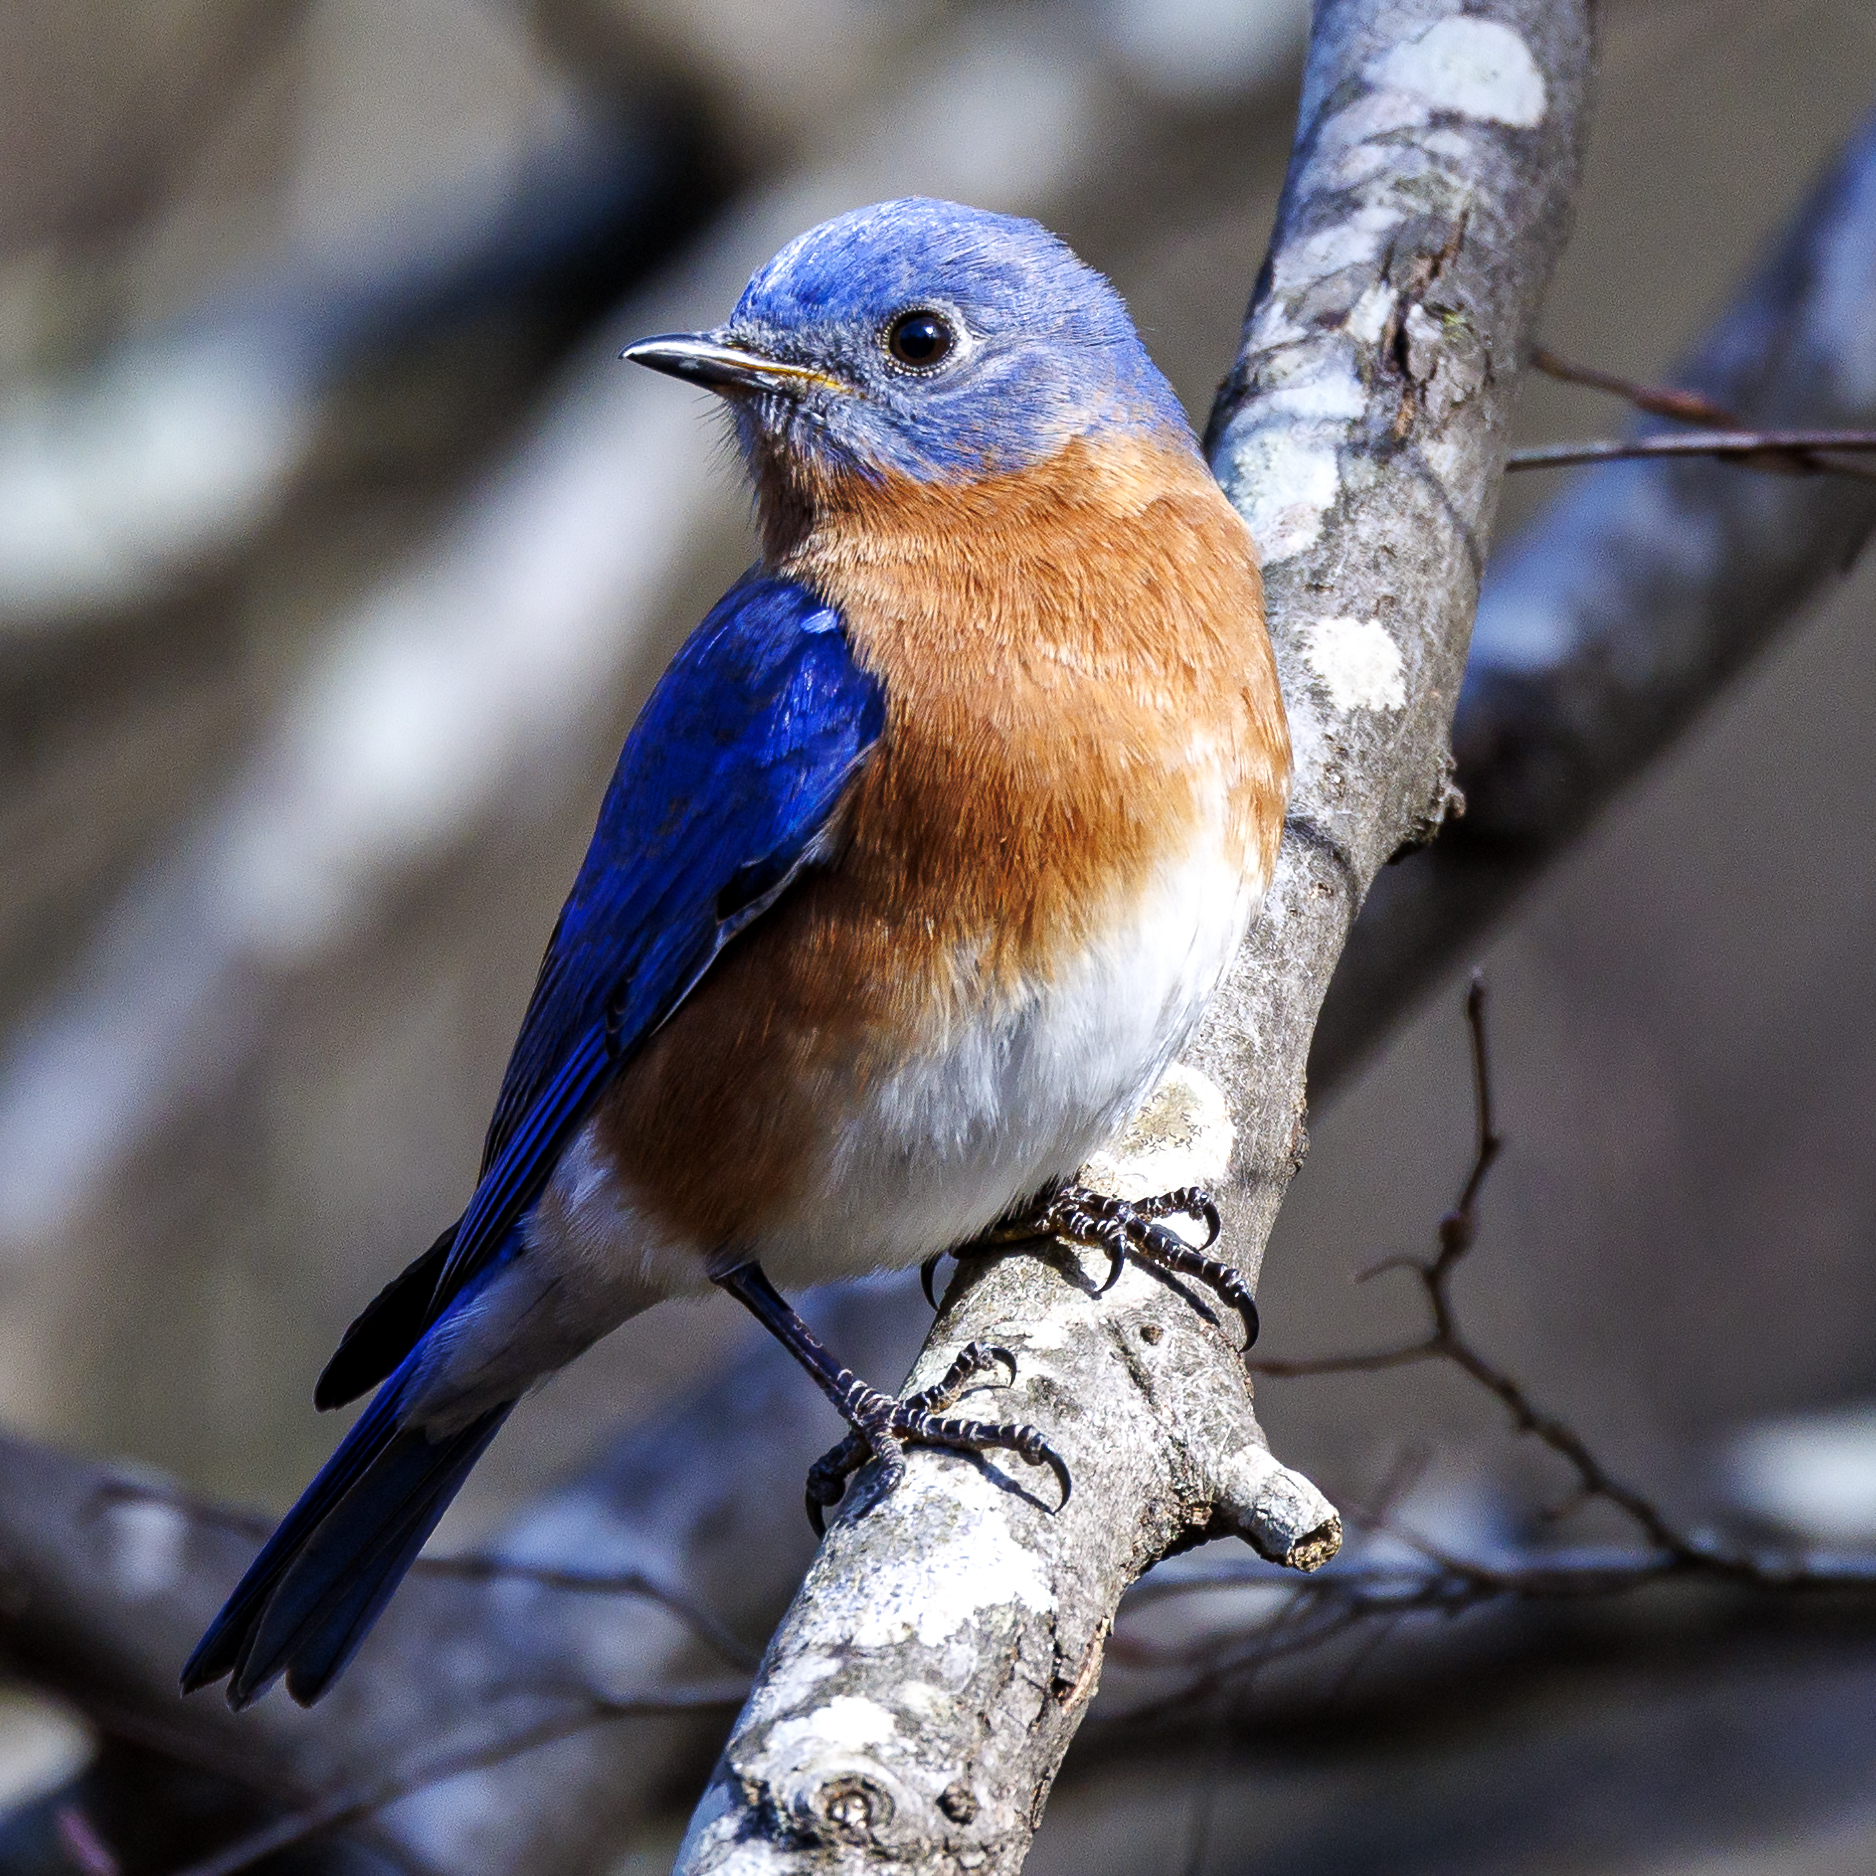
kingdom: Animalia
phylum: Chordata
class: Aves
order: Passeriformes
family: Turdidae
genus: Sialia
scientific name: Sialia sialis
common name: Eastern bluebird
